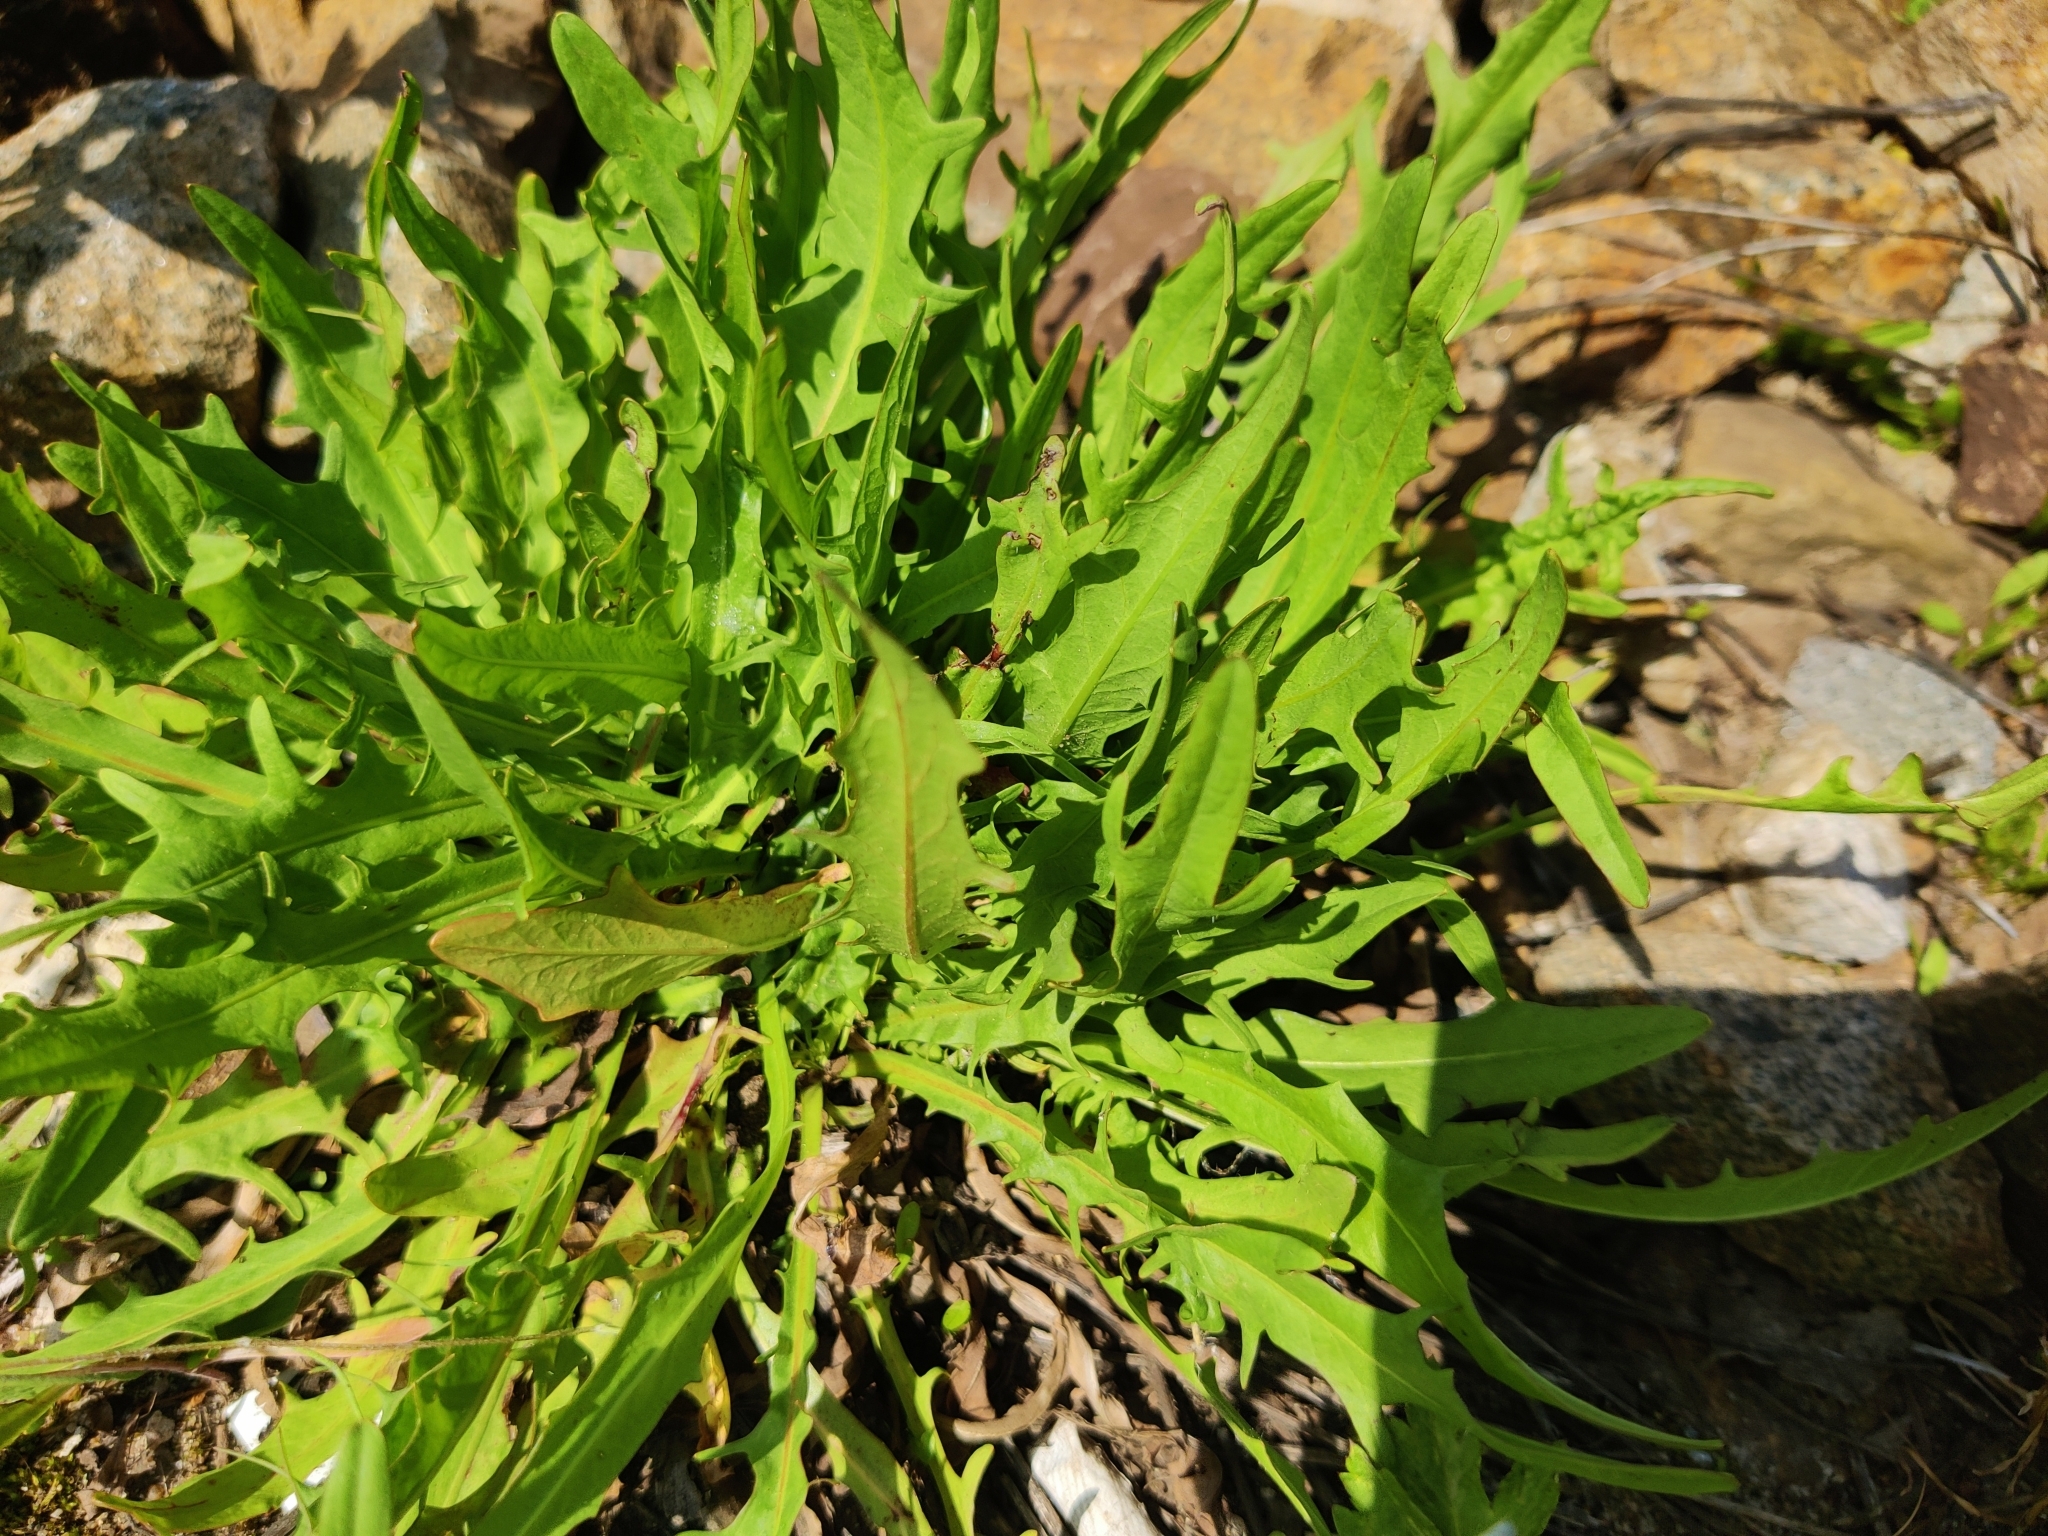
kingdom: Plantae
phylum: Tracheophyta
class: Magnoliopsida
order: Asterales
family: Asteraceae
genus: Scorzoneroides
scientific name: Scorzoneroides autumnalis
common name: Autumn hawkbit
